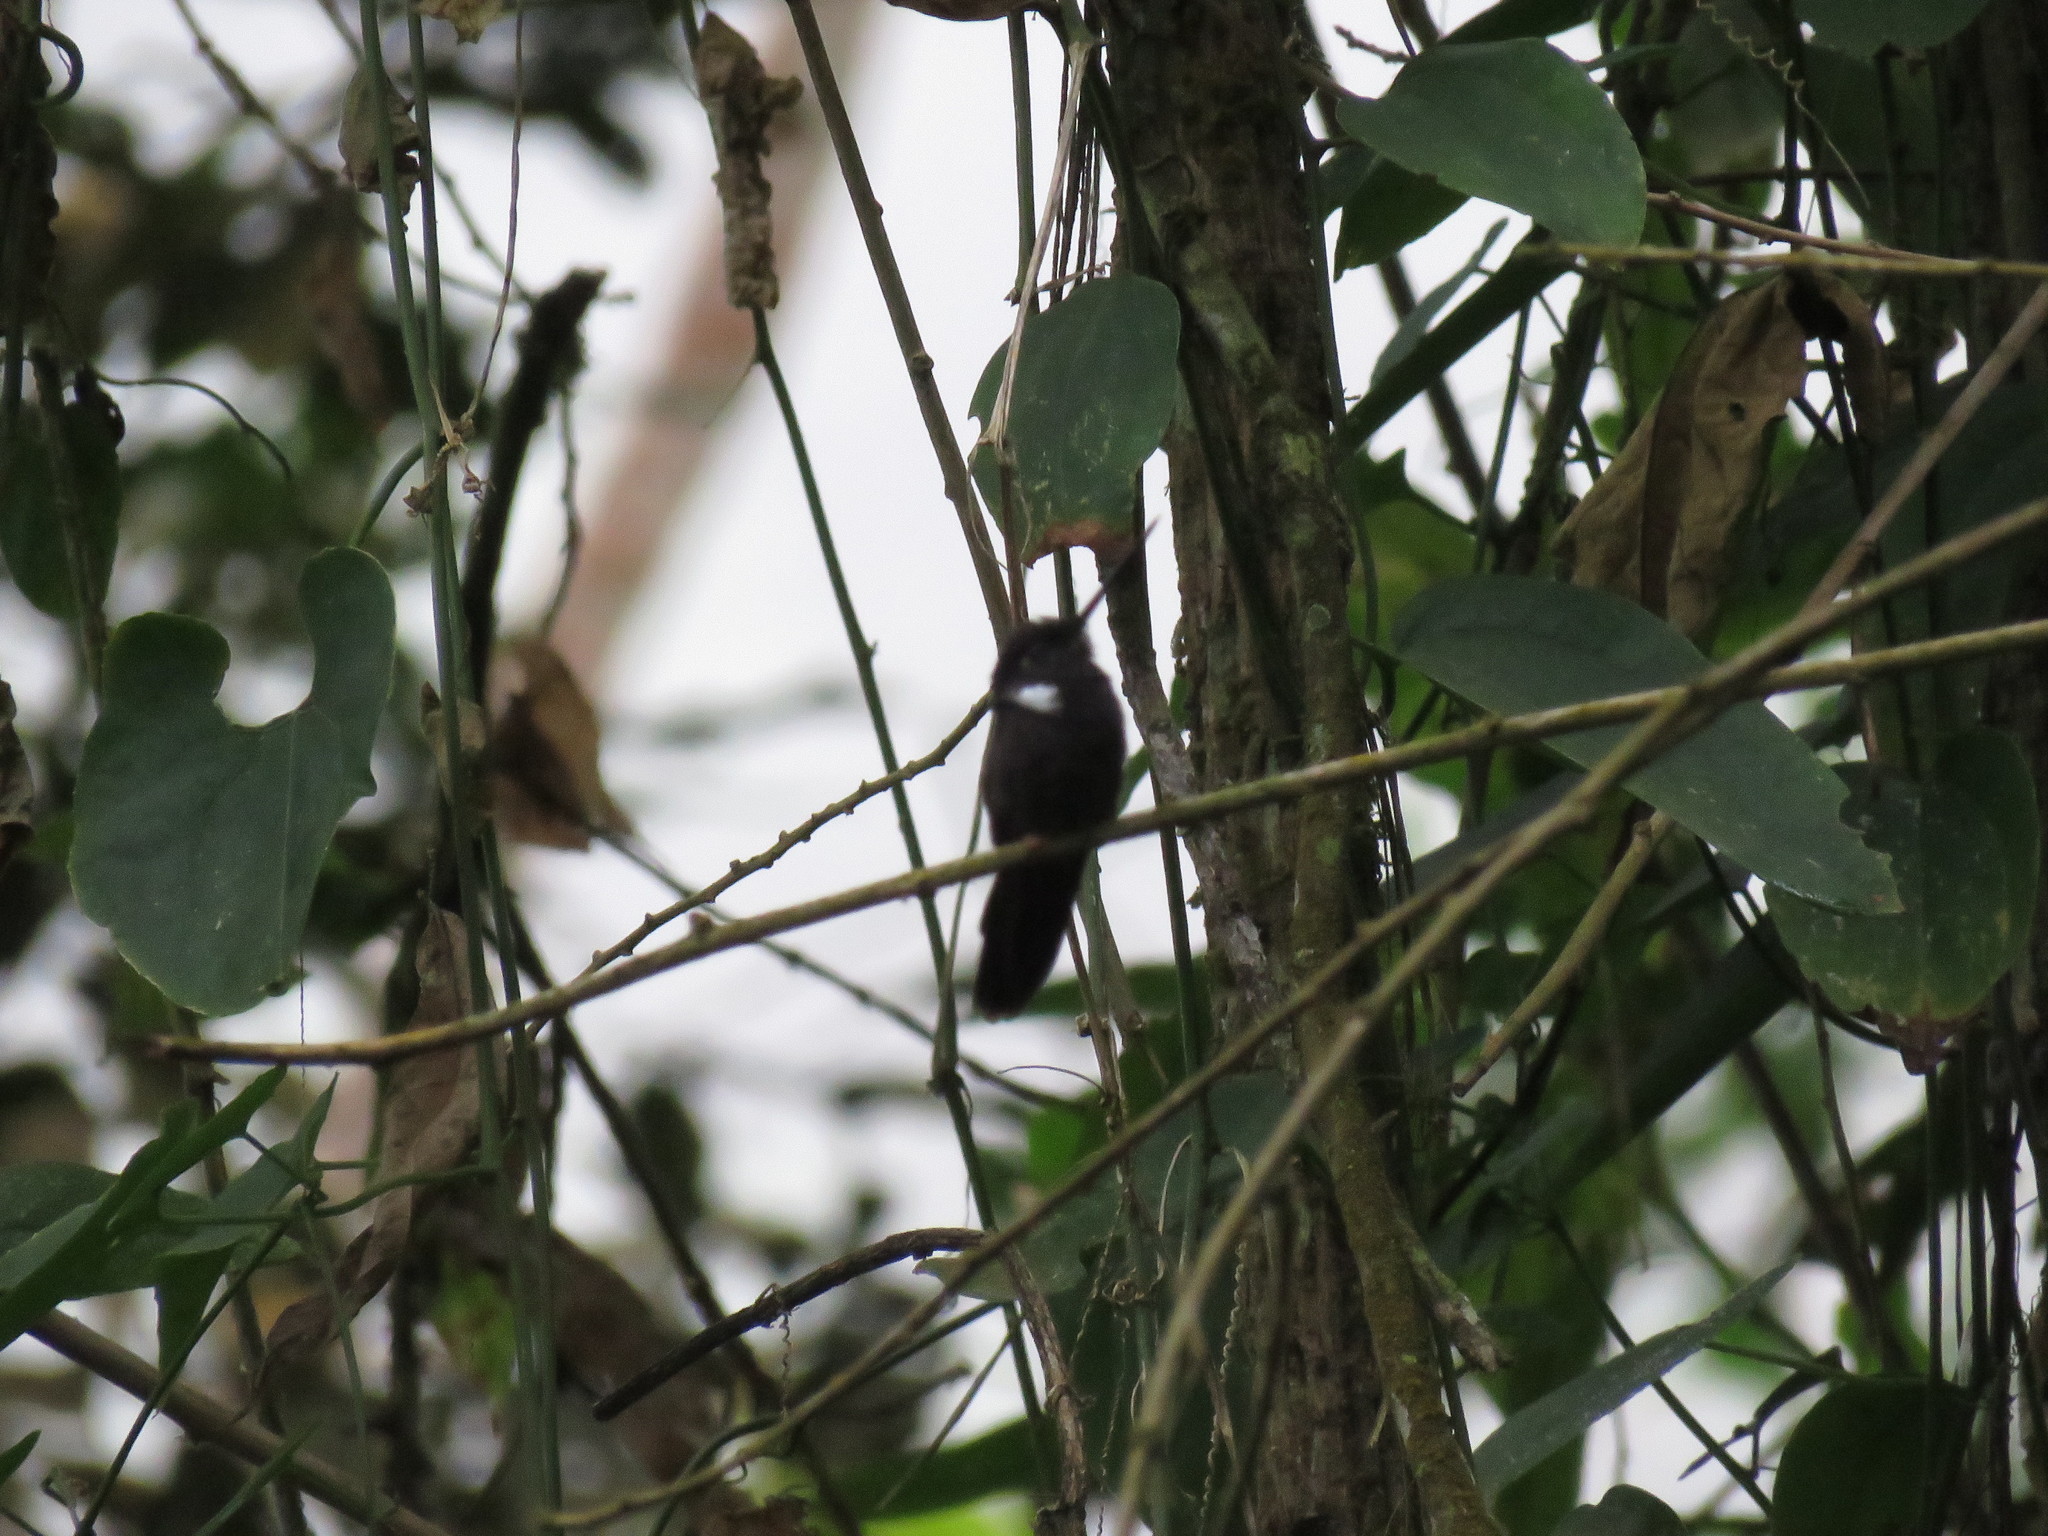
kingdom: Animalia
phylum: Chordata
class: Aves
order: Apodiformes
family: Trochilidae
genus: Coeligena
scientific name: Coeligena prunellei
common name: Black inca
